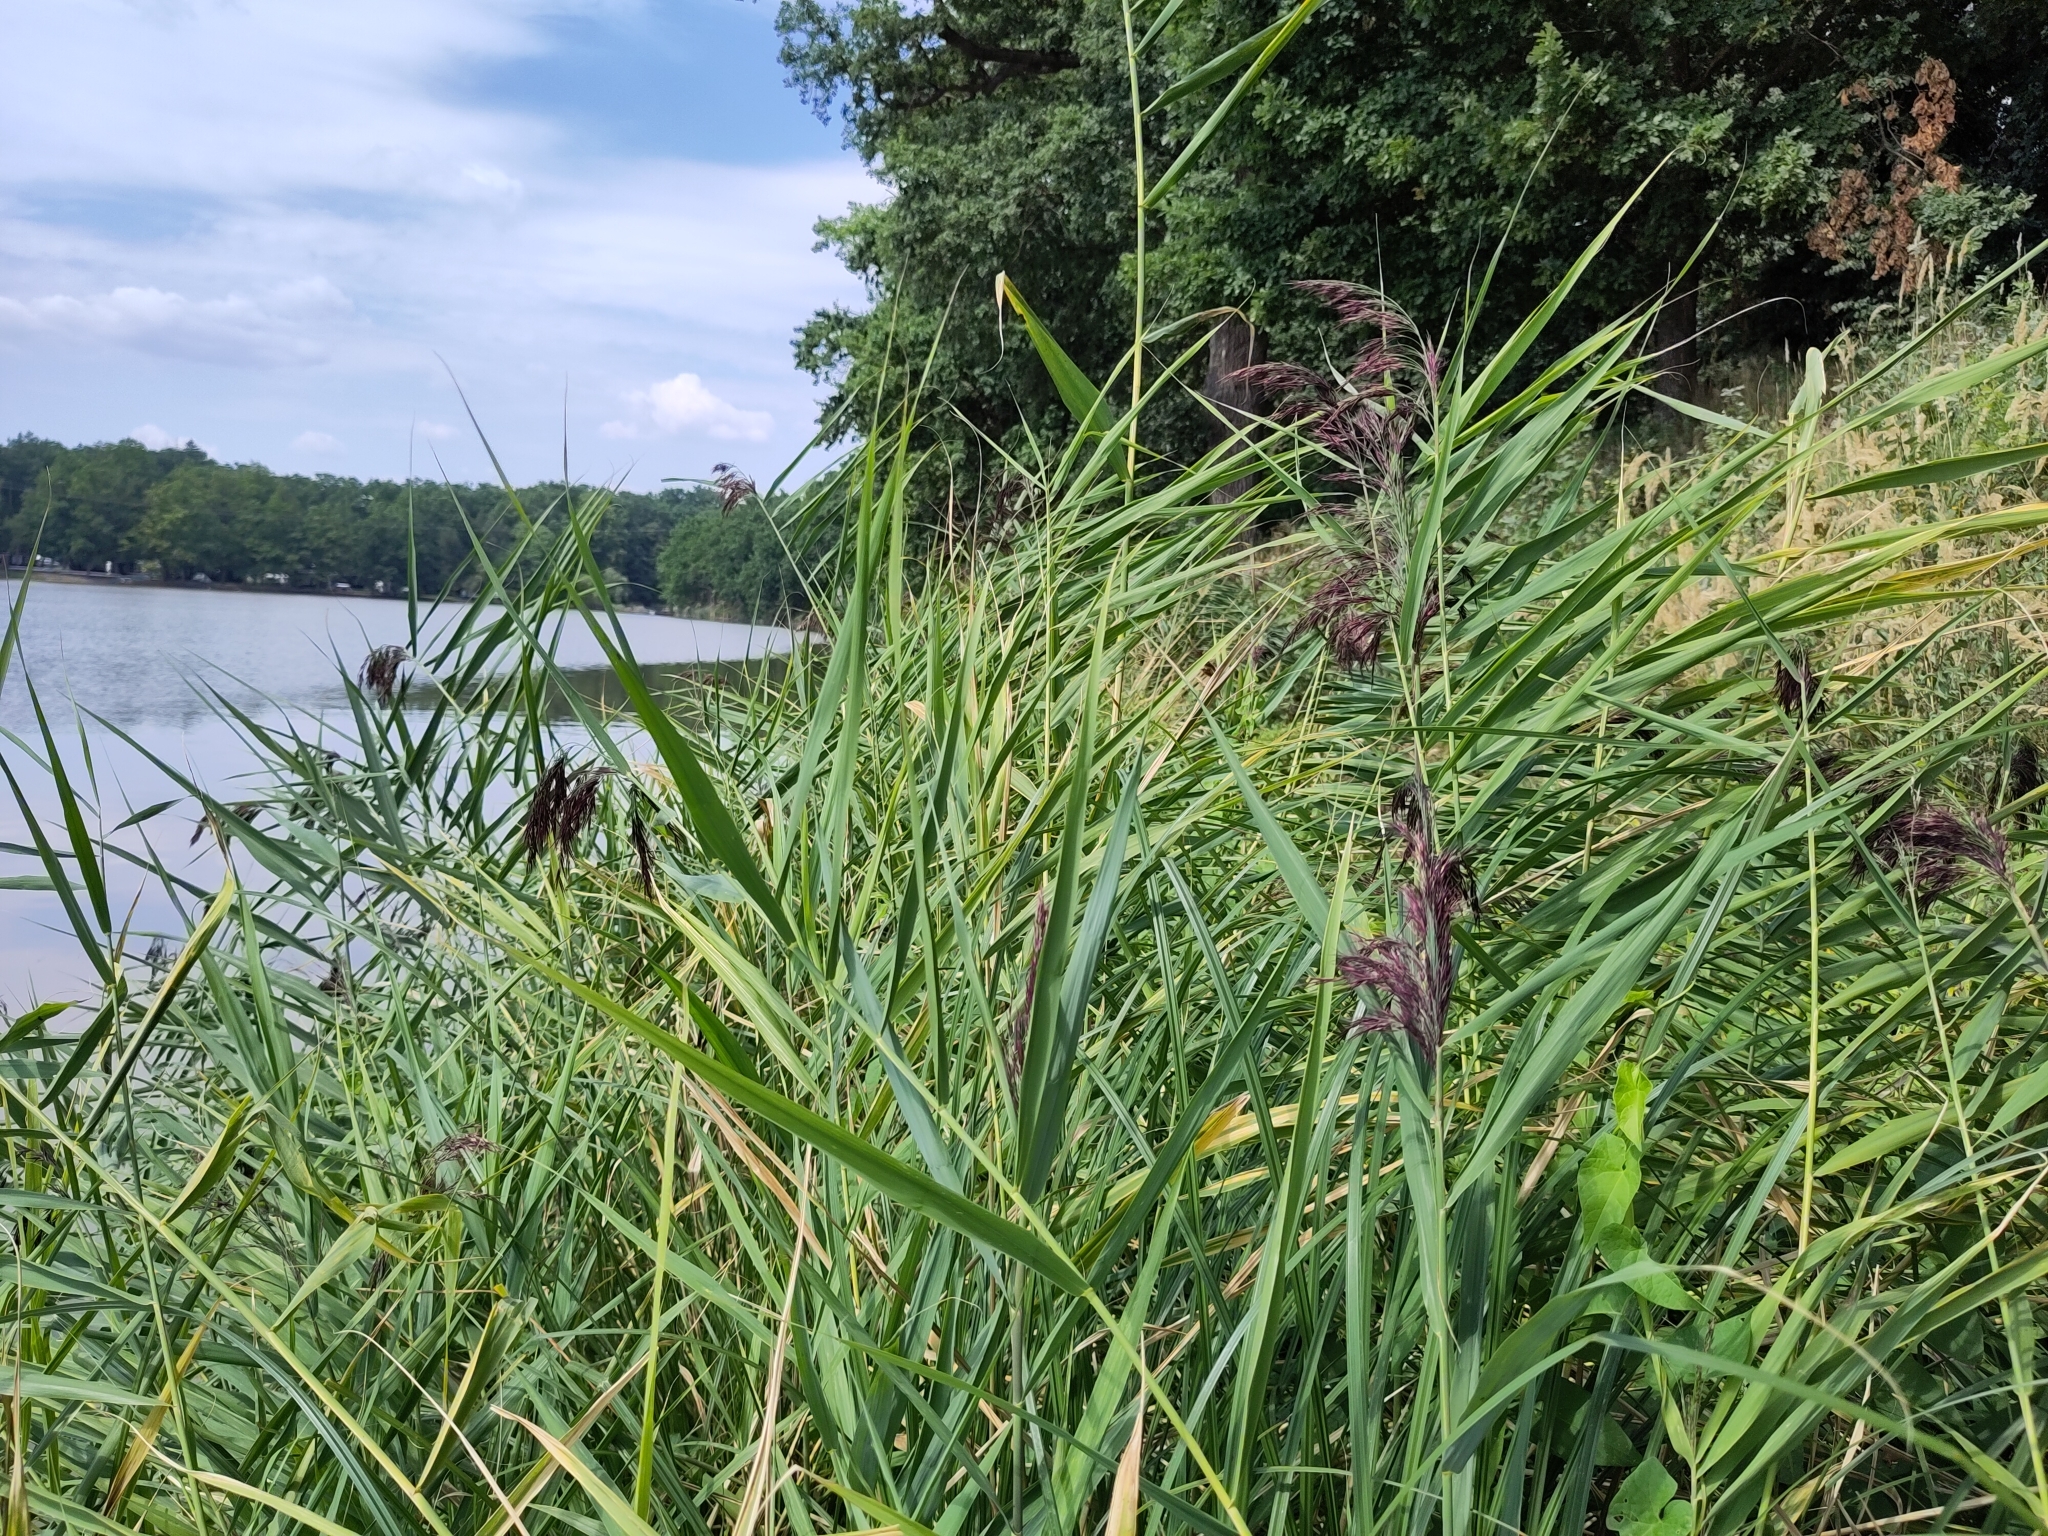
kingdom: Plantae
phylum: Tracheophyta
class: Liliopsida
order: Poales
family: Poaceae
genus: Phragmites
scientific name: Phragmites australis
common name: Common reed
